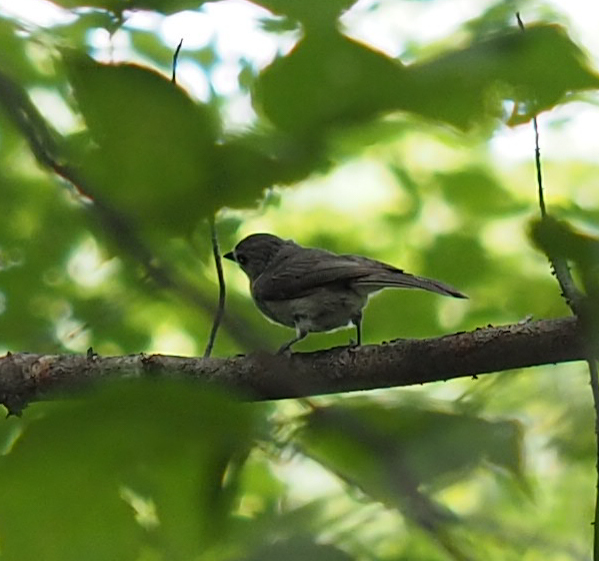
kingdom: Animalia
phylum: Chordata
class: Aves
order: Passeriformes
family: Paridae
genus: Baeolophus
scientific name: Baeolophus bicolor
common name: Tufted titmouse
